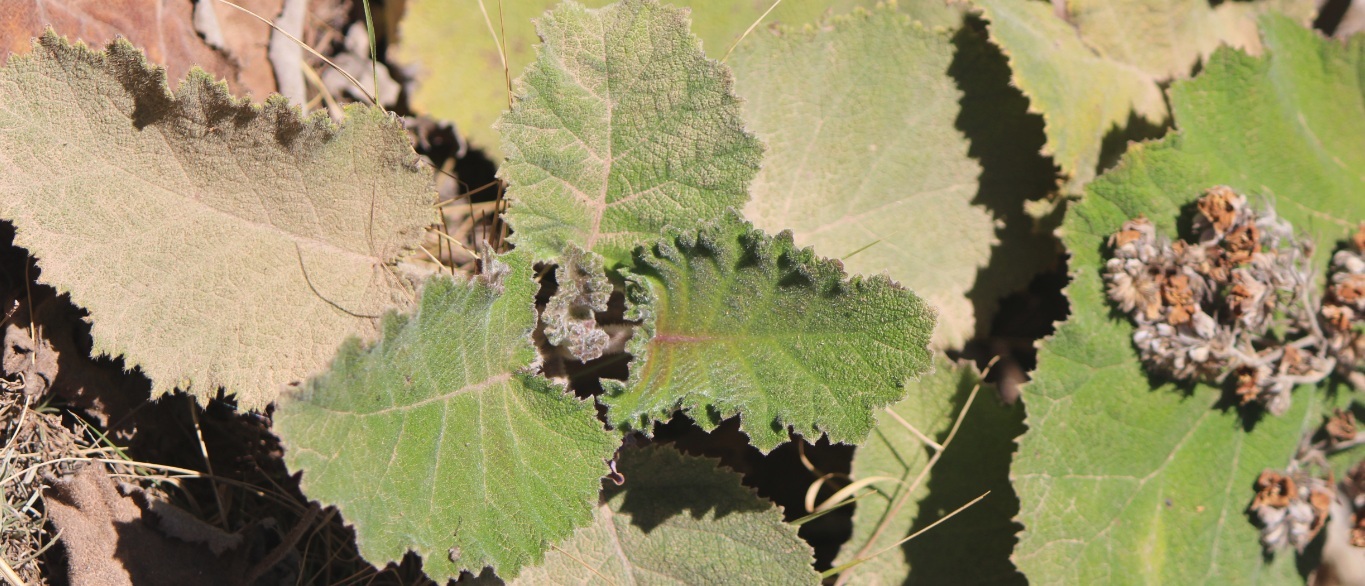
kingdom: Plantae
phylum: Tracheophyta
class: Magnoliopsida
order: Boraginales
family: Namaceae
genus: Wigandia
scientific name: Wigandia urens
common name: Caracus wigandia
